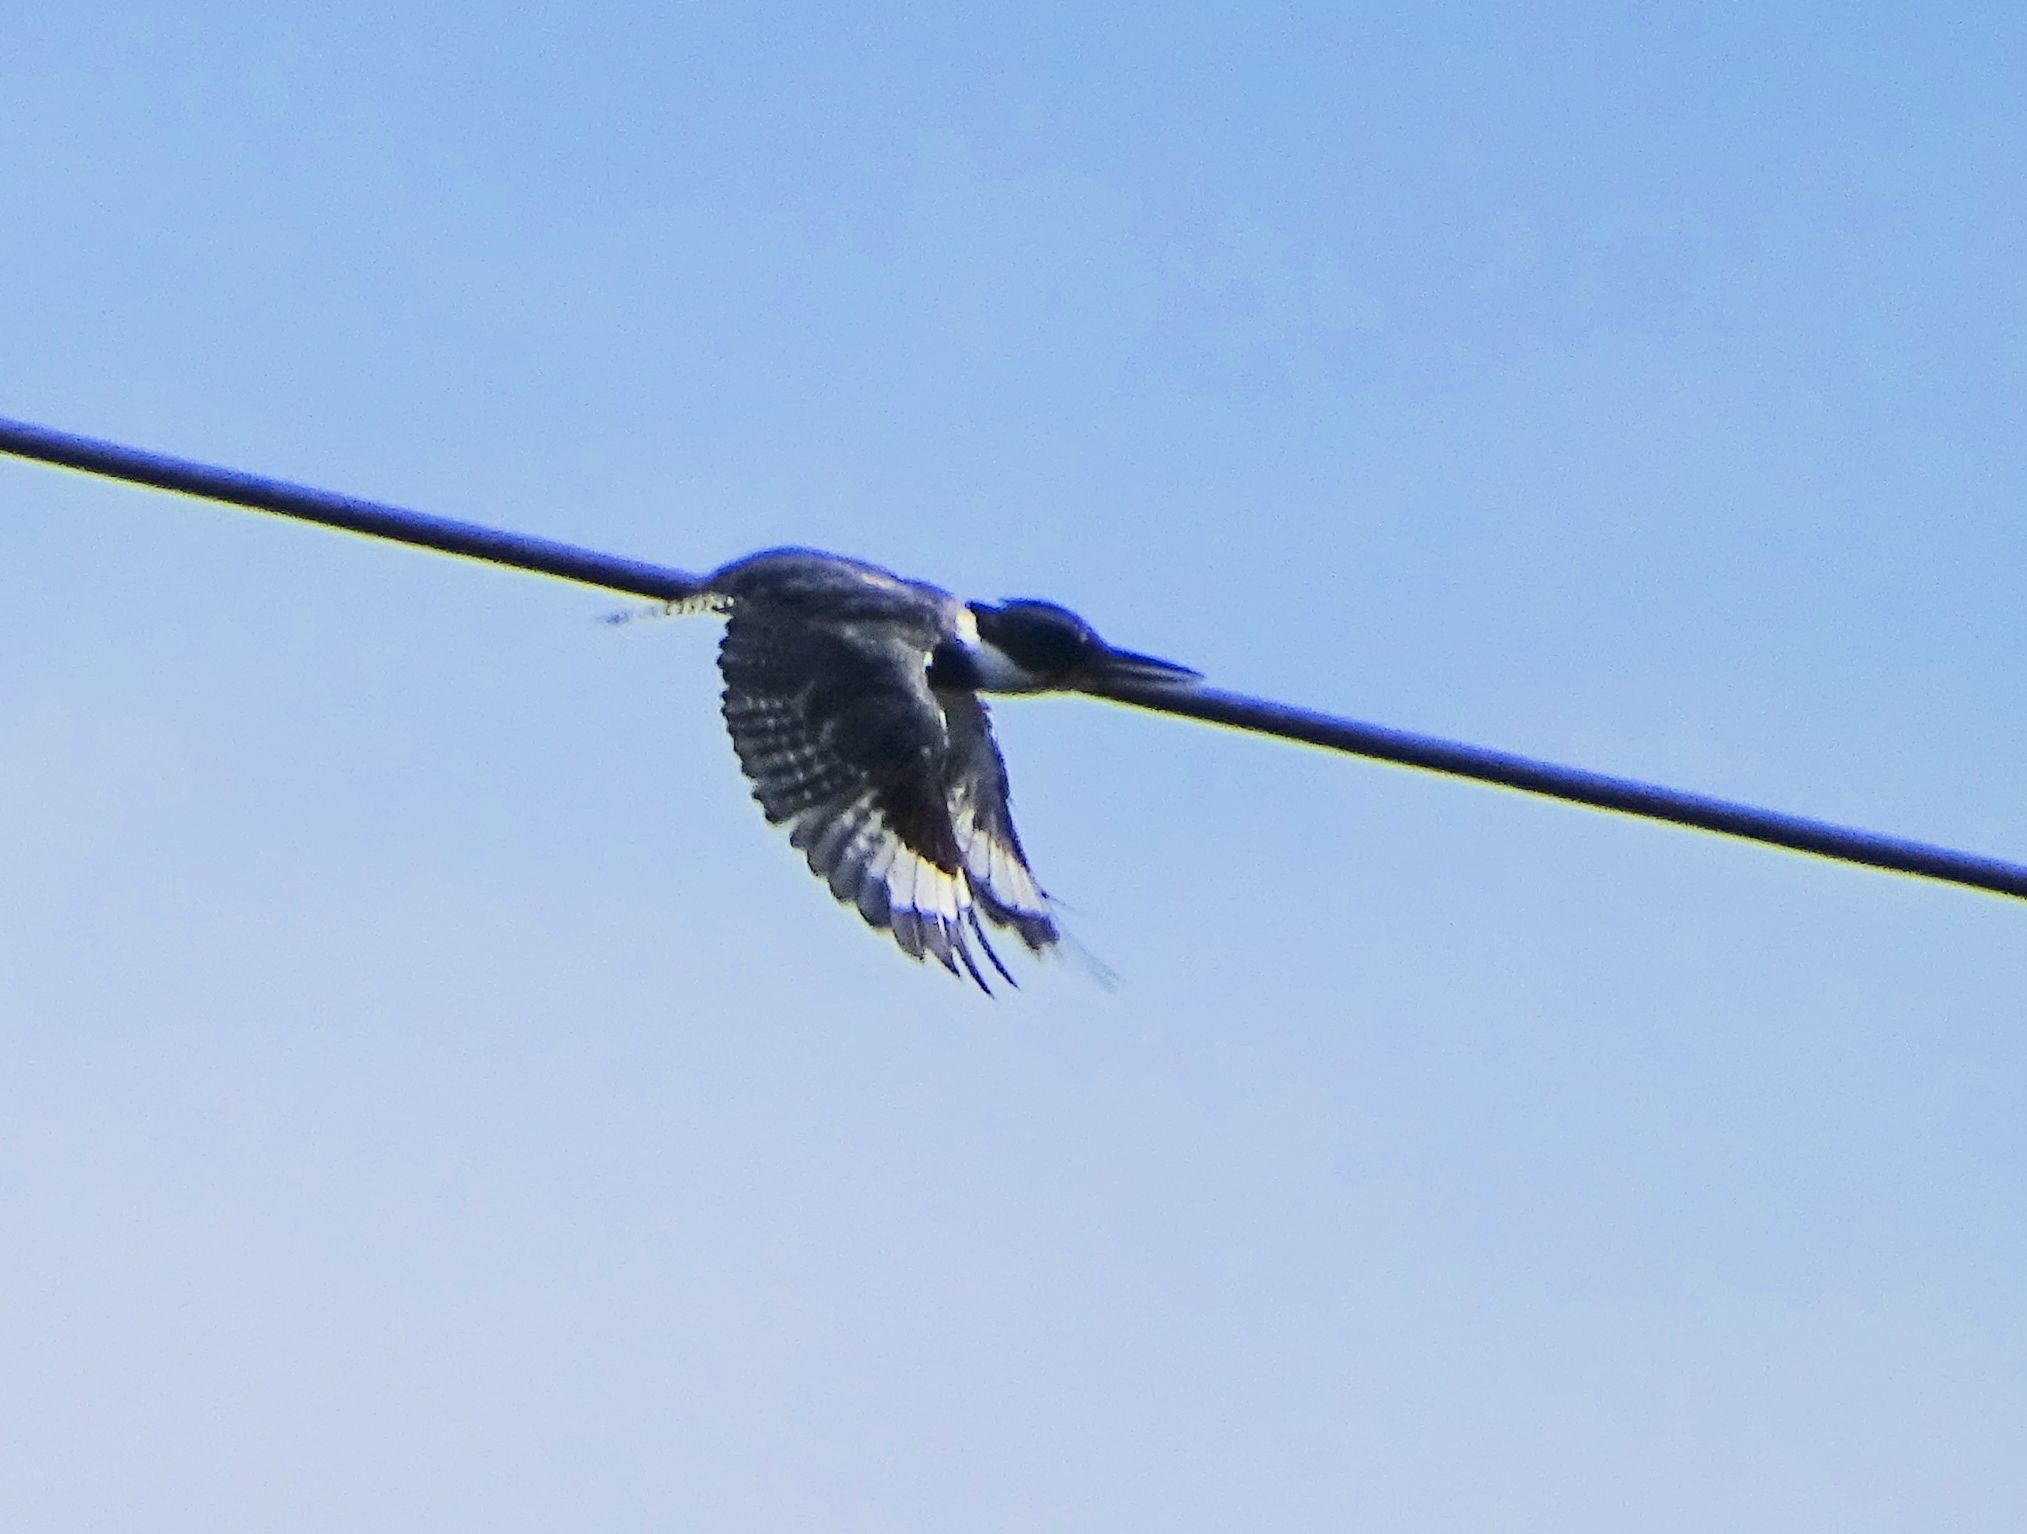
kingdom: Animalia
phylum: Chordata
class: Aves
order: Coraciiformes
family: Alcedinidae
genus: Megaceryle
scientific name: Megaceryle alcyon
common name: Belted kingfisher
